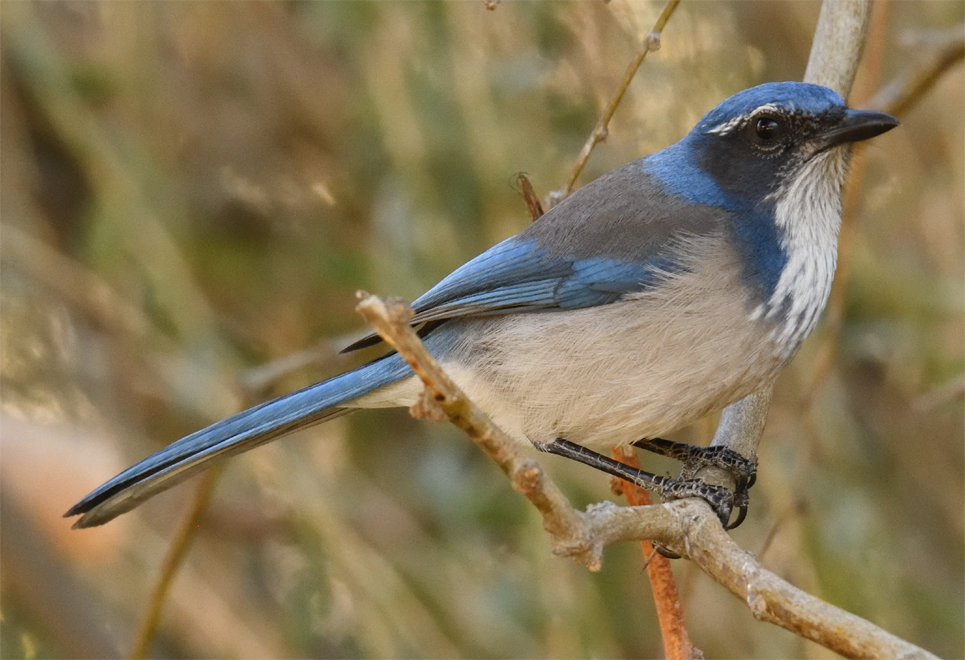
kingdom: Animalia
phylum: Chordata
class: Aves
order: Passeriformes
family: Corvidae
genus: Aphelocoma
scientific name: Aphelocoma californica
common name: California scrub-jay
